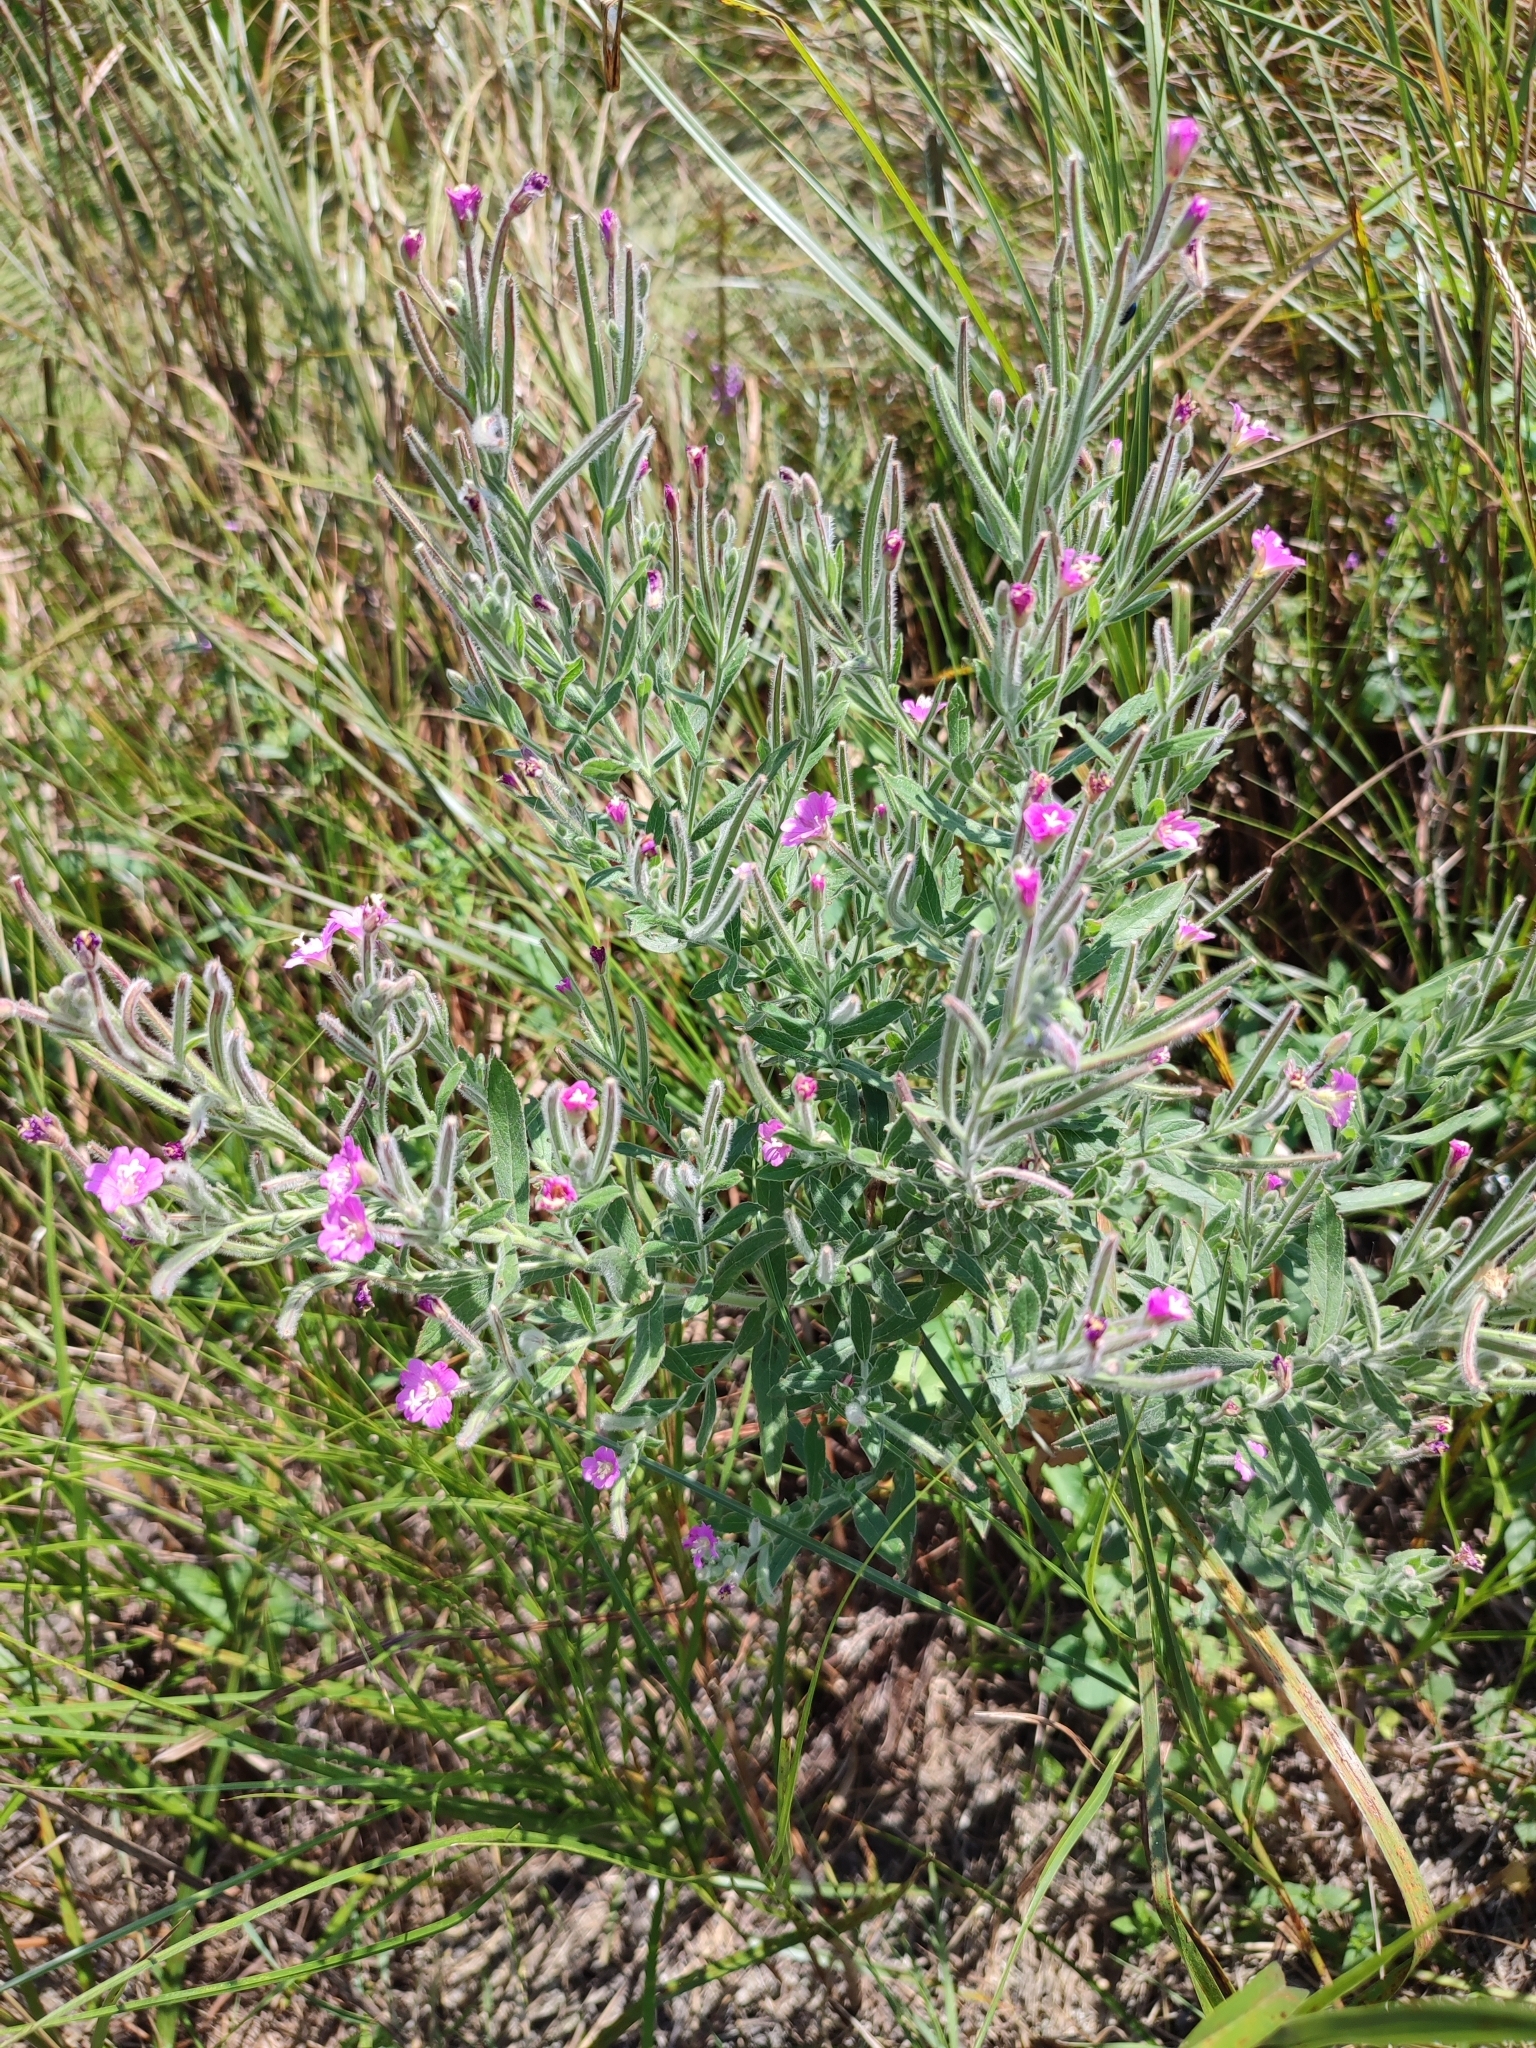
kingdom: Plantae
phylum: Tracheophyta
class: Magnoliopsida
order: Myrtales
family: Onagraceae
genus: Epilobium
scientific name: Epilobium hirsutum
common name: Great willowherb
